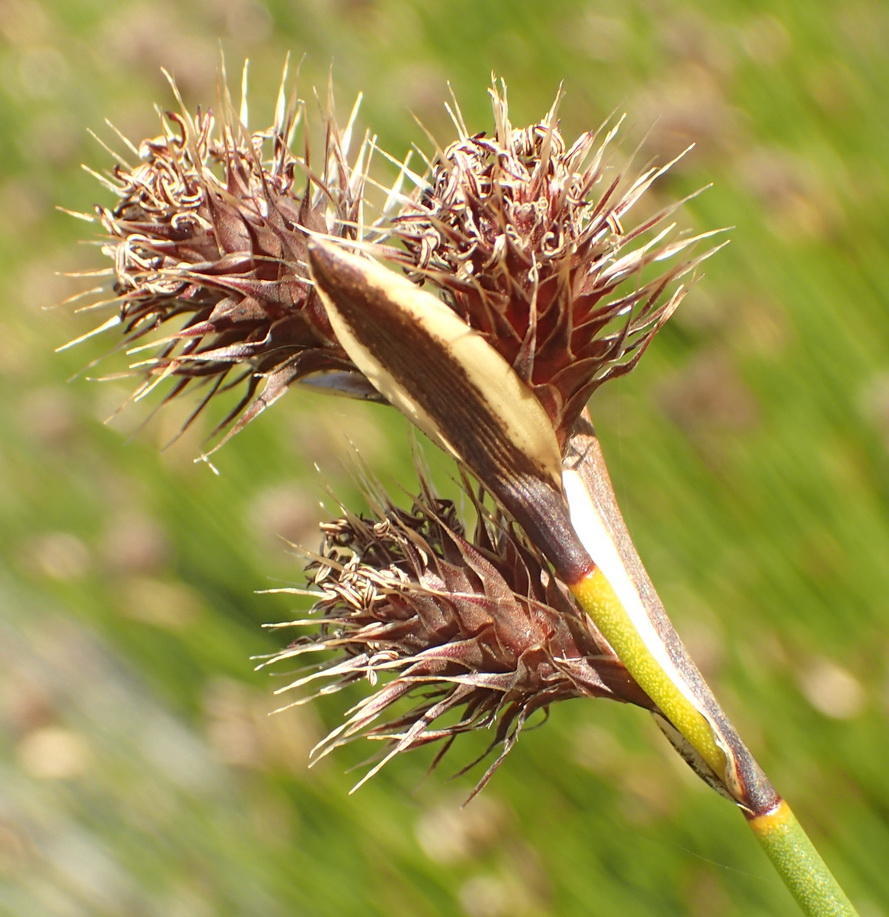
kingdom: Plantae
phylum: Tracheophyta
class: Liliopsida
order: Poales
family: Restionaceae
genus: Hypodiscus
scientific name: Hypodiscus aristatus
